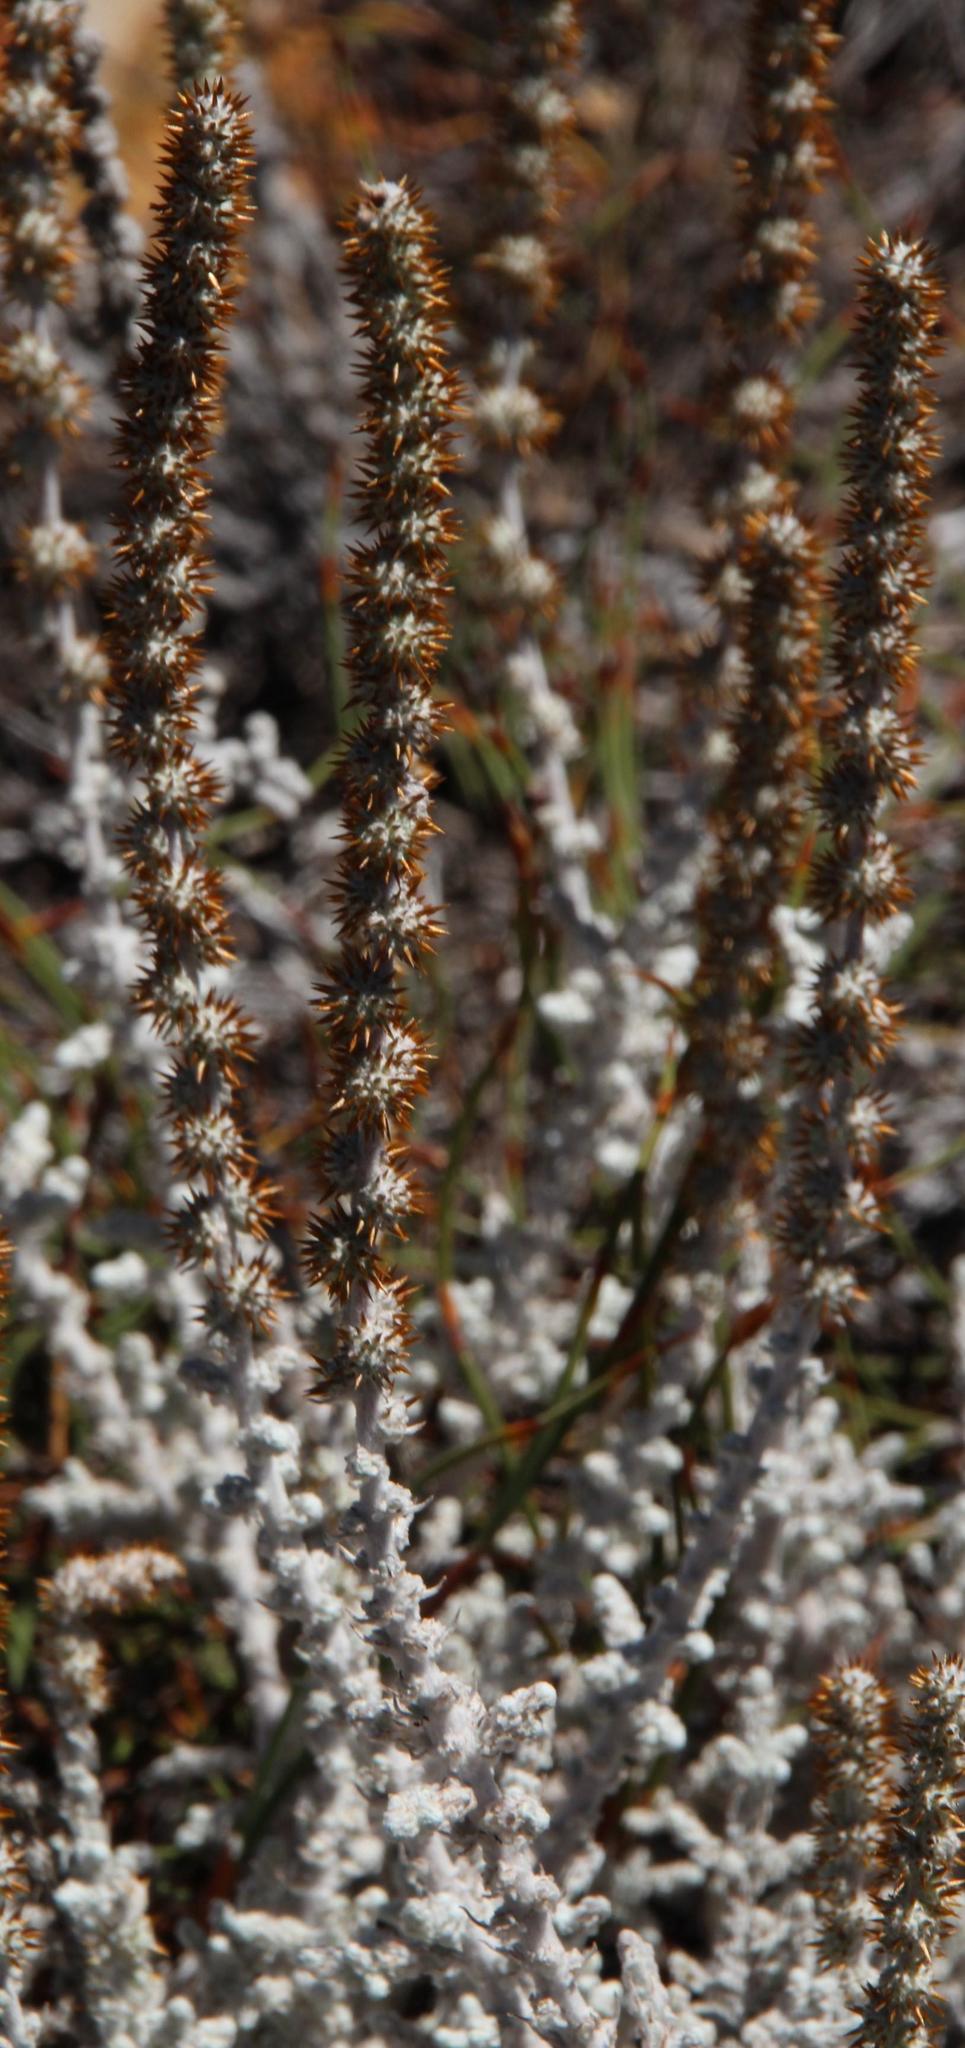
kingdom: Plantae
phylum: Tracheophyta
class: Magnoliopsida
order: Asterales
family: Asteraceae
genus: Seriphium
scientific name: Seriphium plumosum
